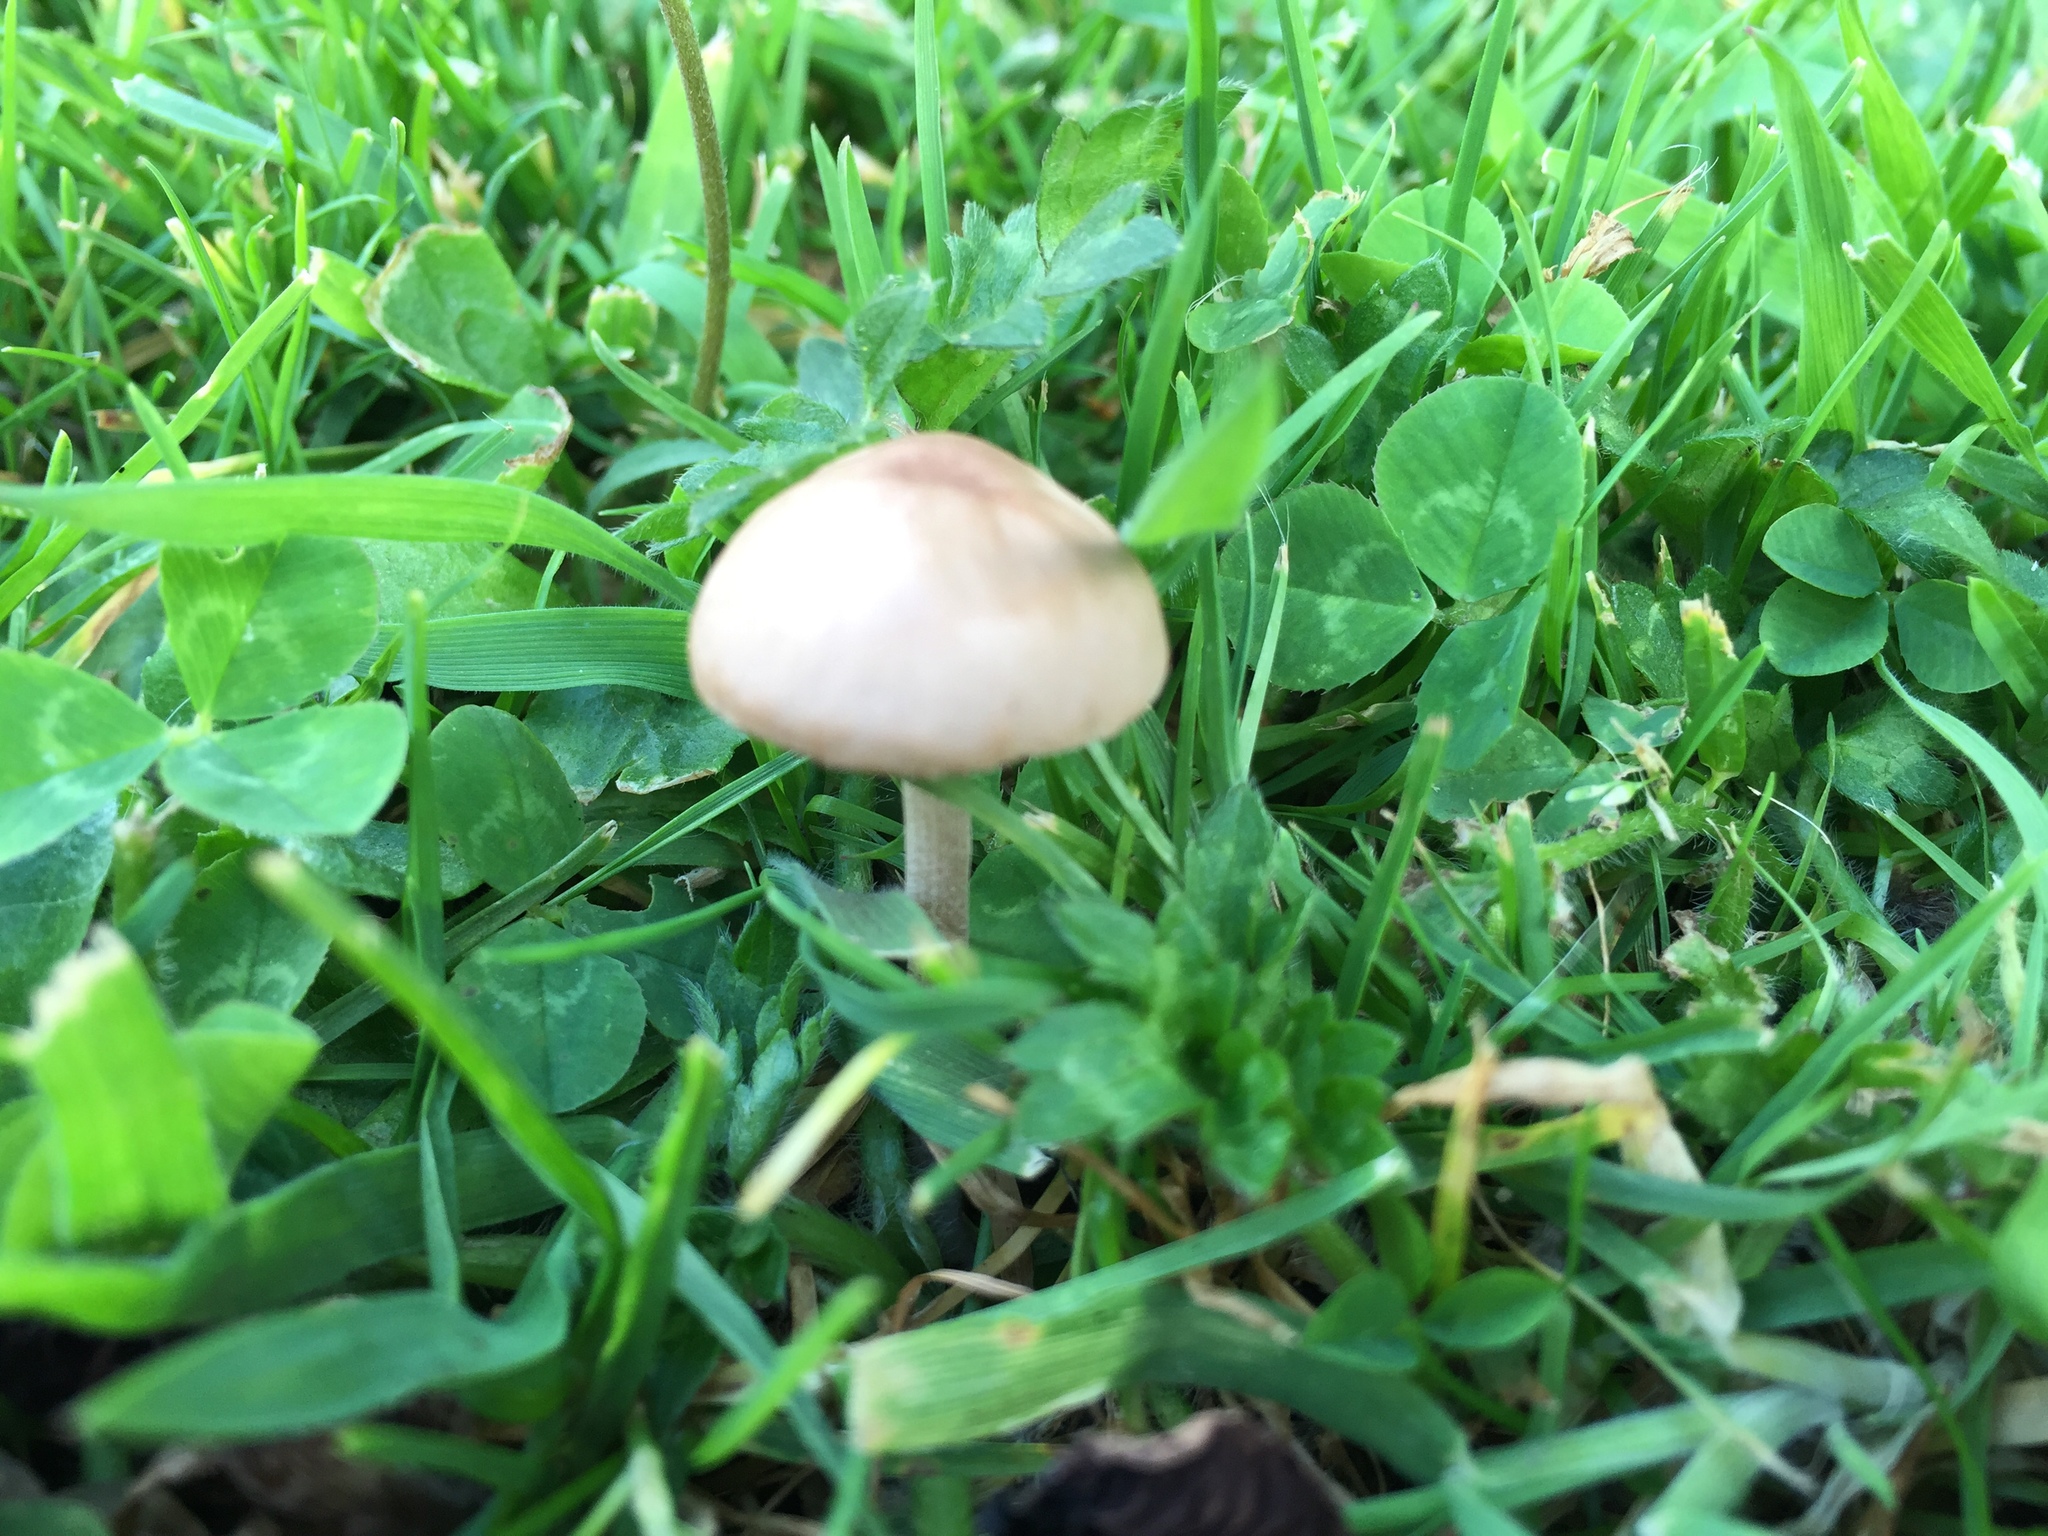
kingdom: Fungi
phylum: Basidiomycota
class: Agaricomycetes
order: Agaricales
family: Bolbitiaceae
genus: Panaeolina
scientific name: Panaeolina foenisecii
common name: Brown hay cap
